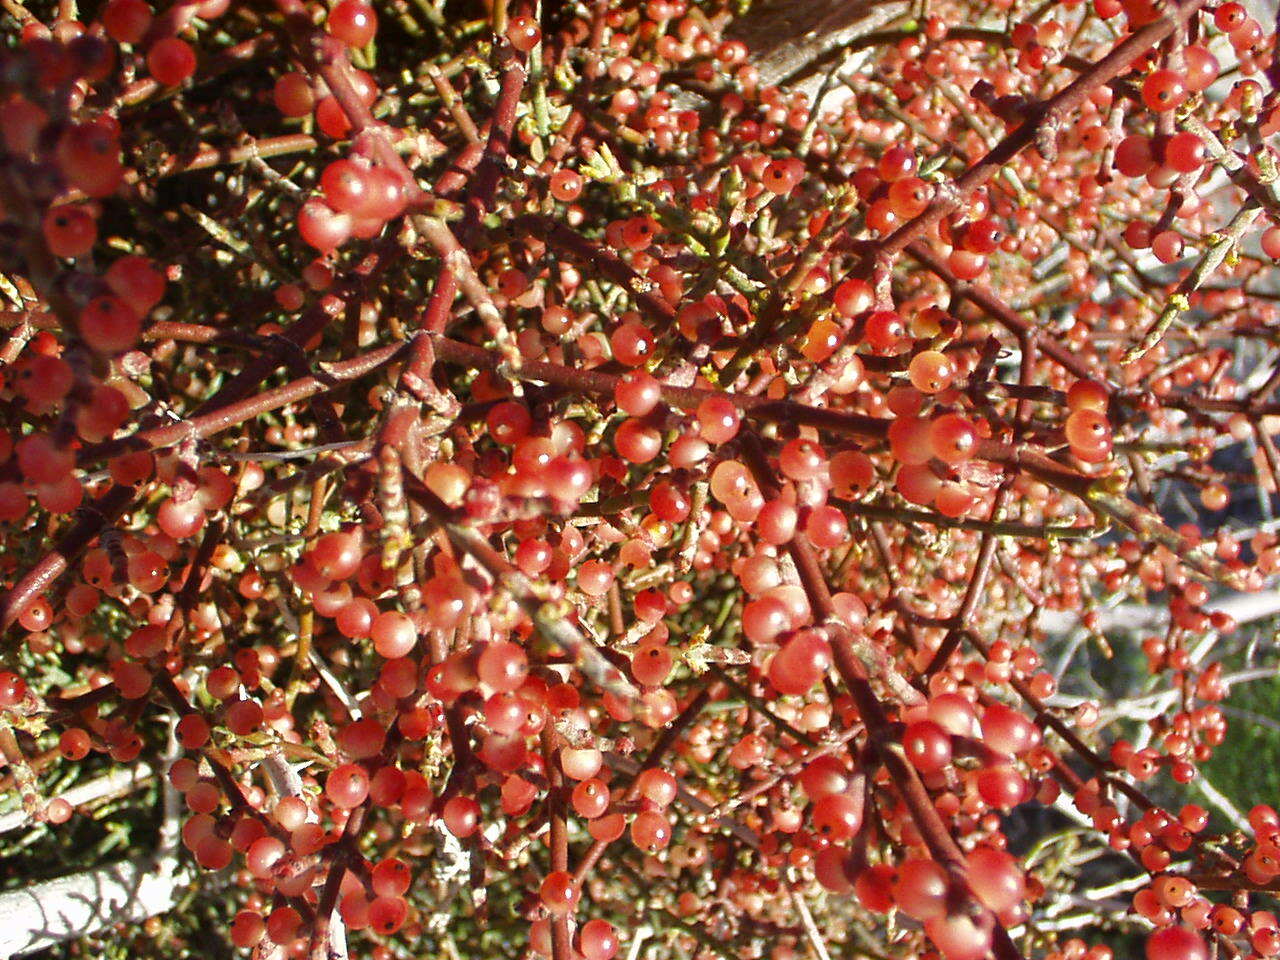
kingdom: Plantae
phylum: Tracheophyta
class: Magnoliopsida
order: Santalales
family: Viscaceae
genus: Phoradendron
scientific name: Phoradendron californicum
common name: Acacia mistletoe
